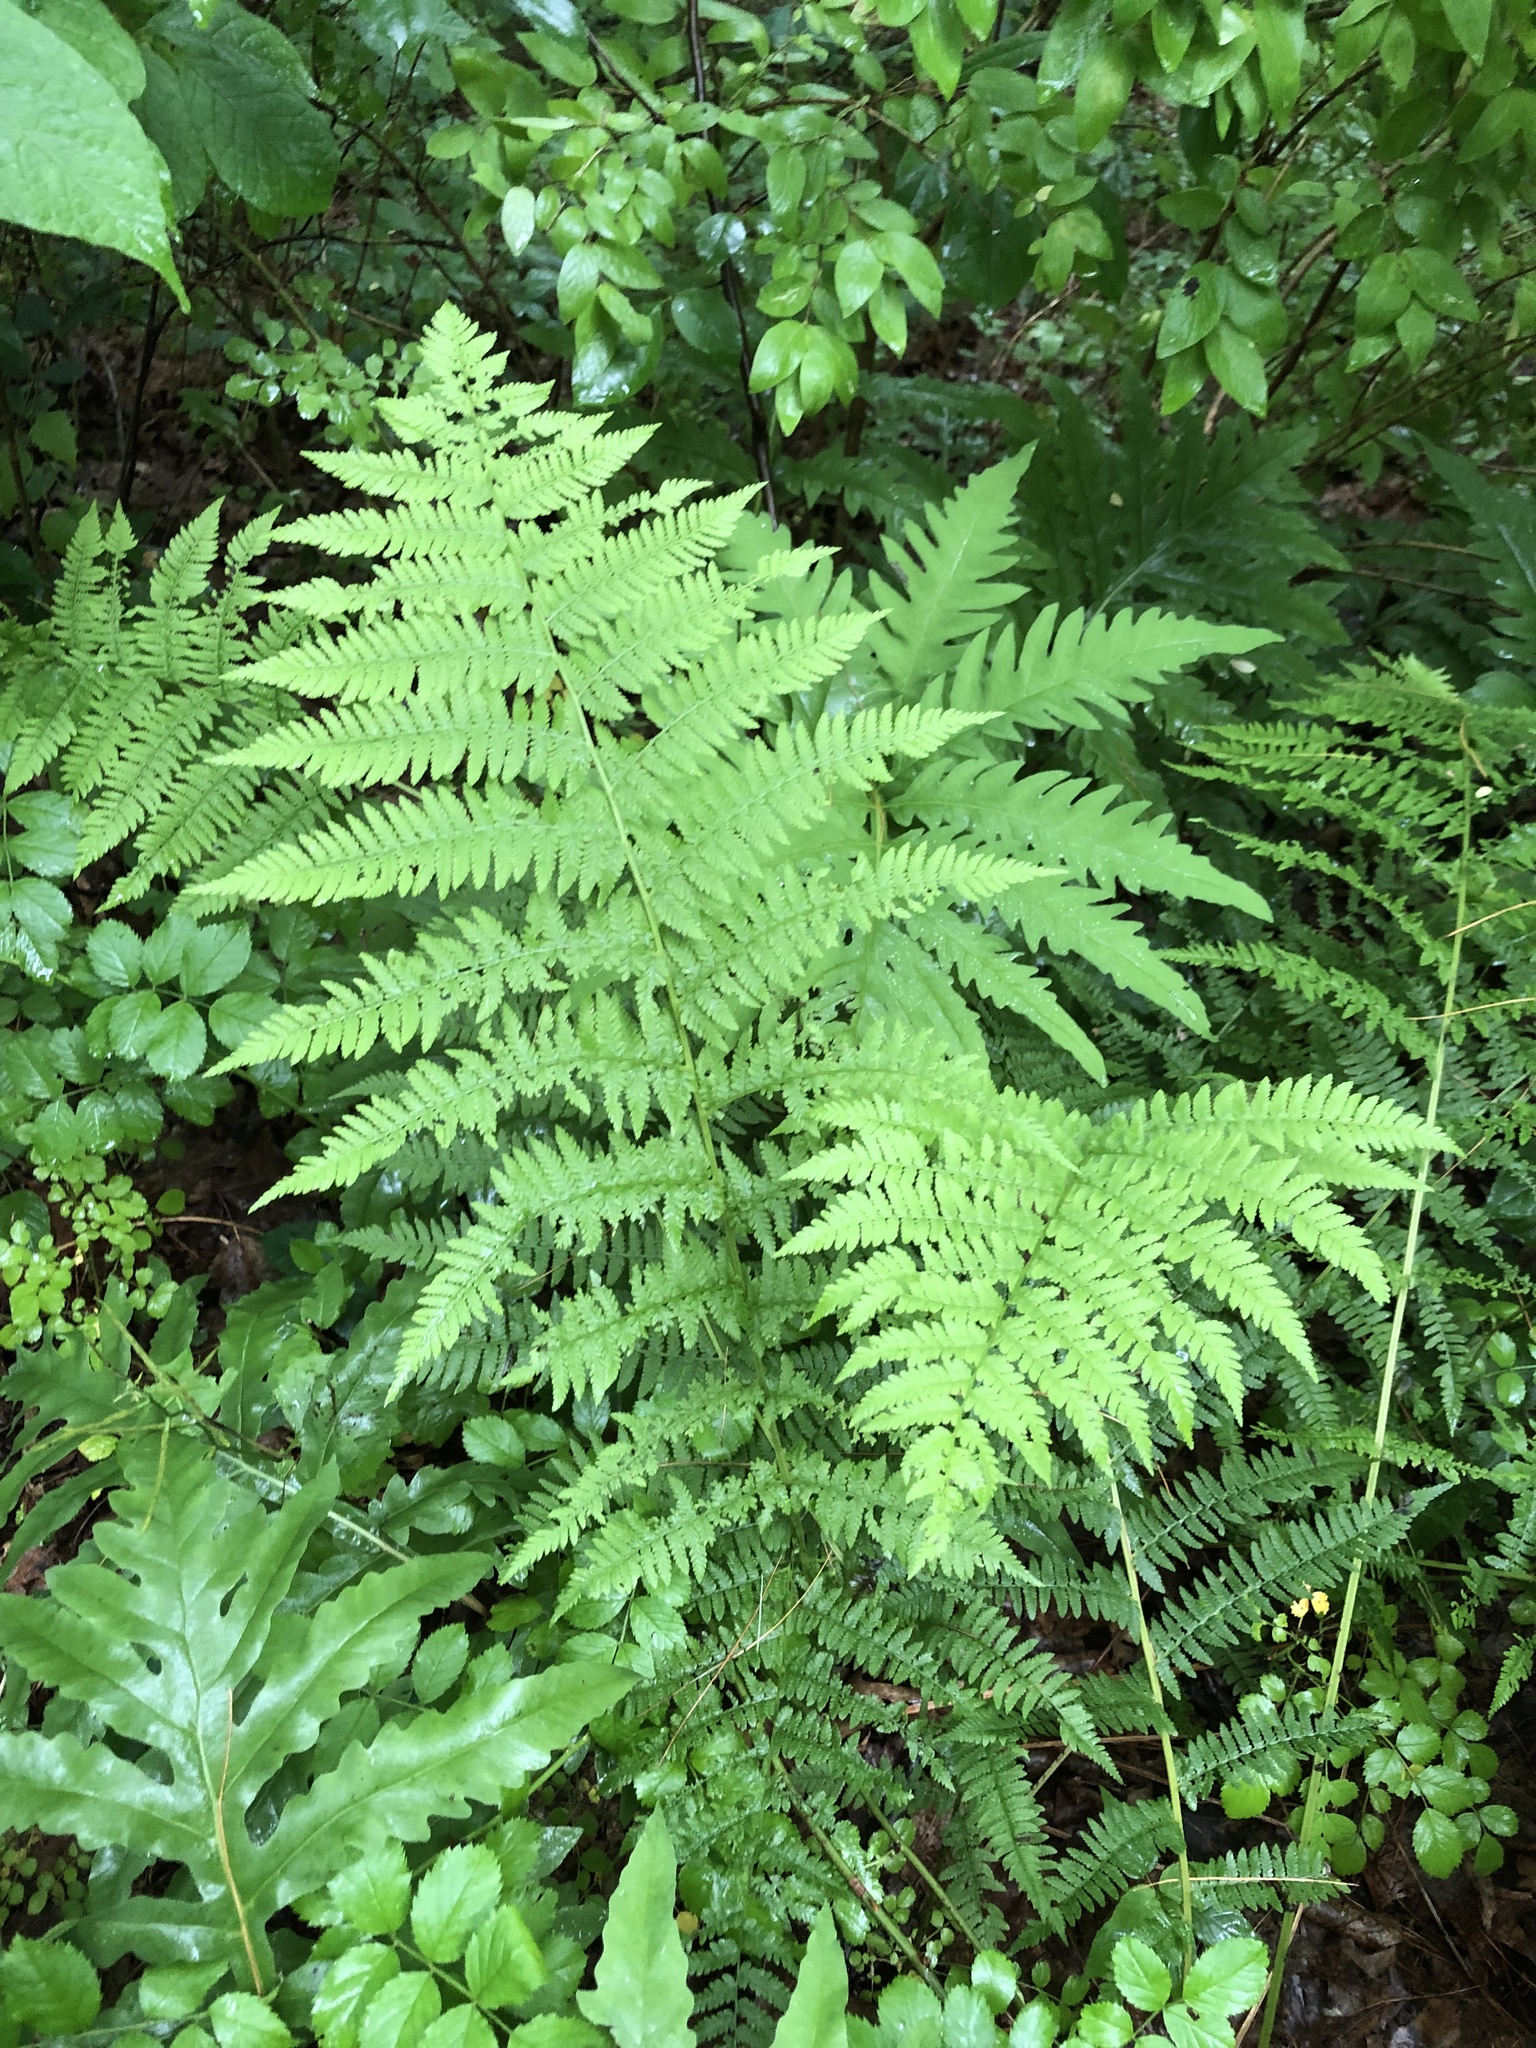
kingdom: Plantae
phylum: Tracheophyta
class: Polypodiopsida
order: Polypodiales
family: Athyriaceae
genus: Athyrium
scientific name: Athyrium angustum
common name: Northern lady fern
